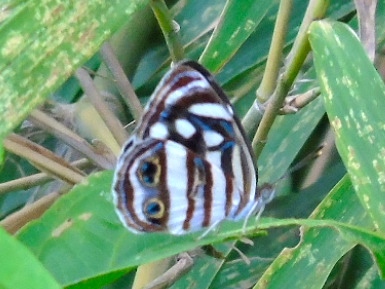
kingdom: Animalia
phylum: Arthropoda
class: Insecta
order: Lepidoptera
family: Nymphalidae
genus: Dynamine
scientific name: Dynamine mylitta
